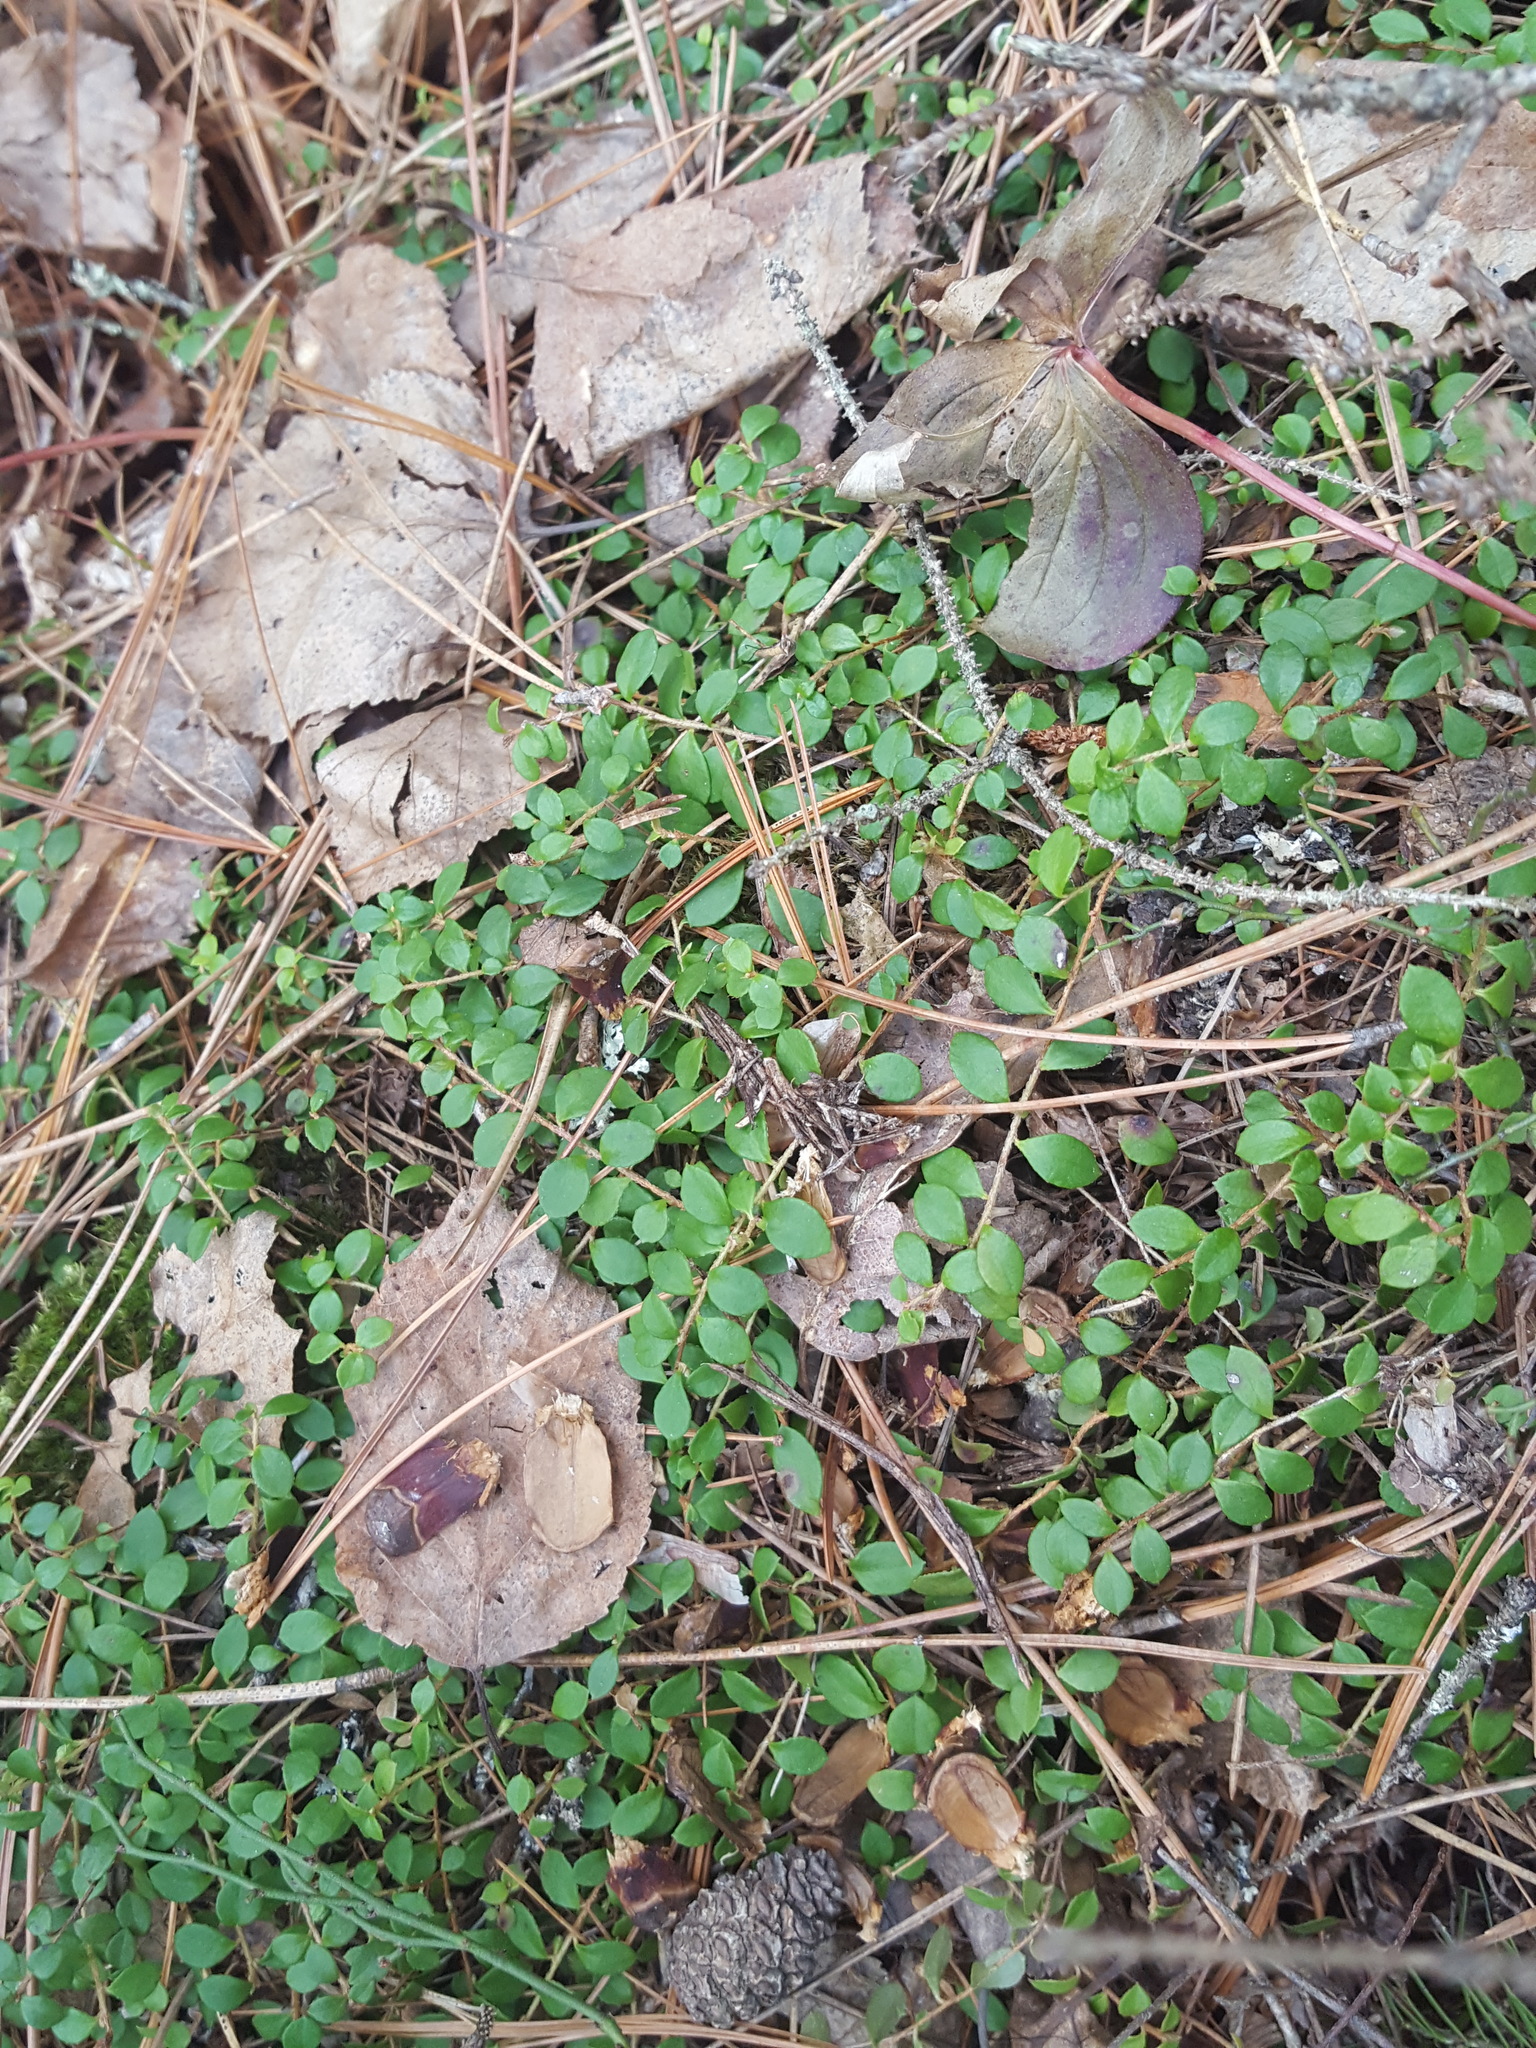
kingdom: Plantae
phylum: Tracheophyta
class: Magnoliopsida
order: Ericales
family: Ericaceae
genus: Gaultheria
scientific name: Gaultheria hispidula
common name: Cancer wintergreen
